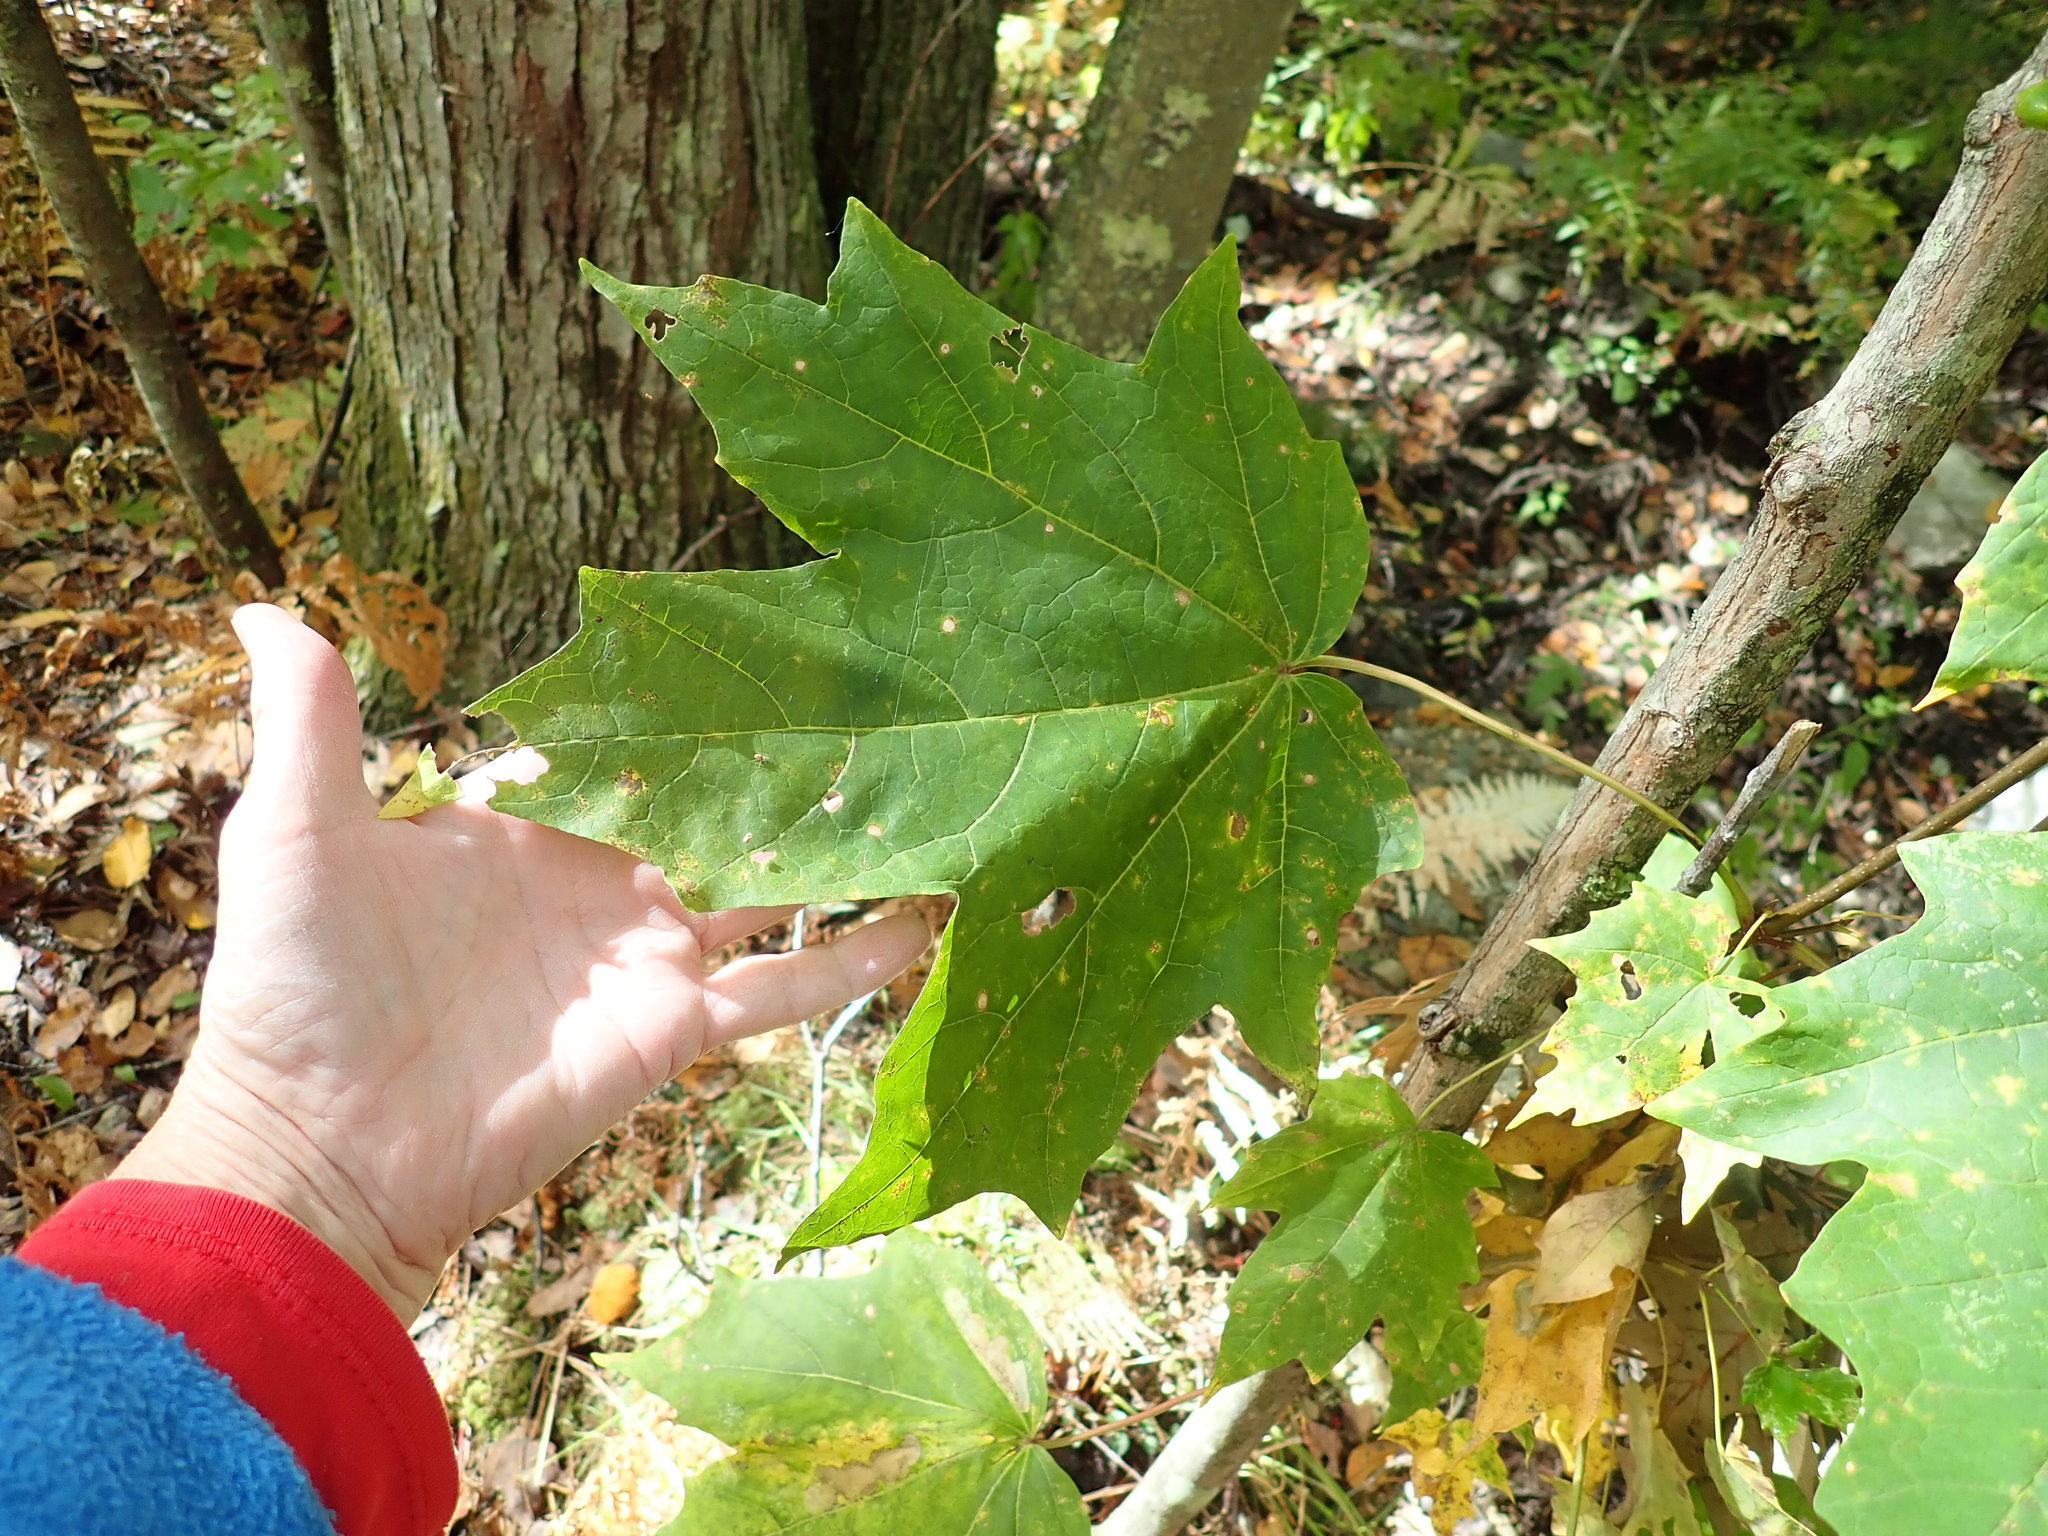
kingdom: Plantae
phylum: Tracheophyta
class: Magnoliopsida
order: Sapindales
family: Sapindaceae
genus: Acer
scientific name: Acer saccharum
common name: Sugar maple
